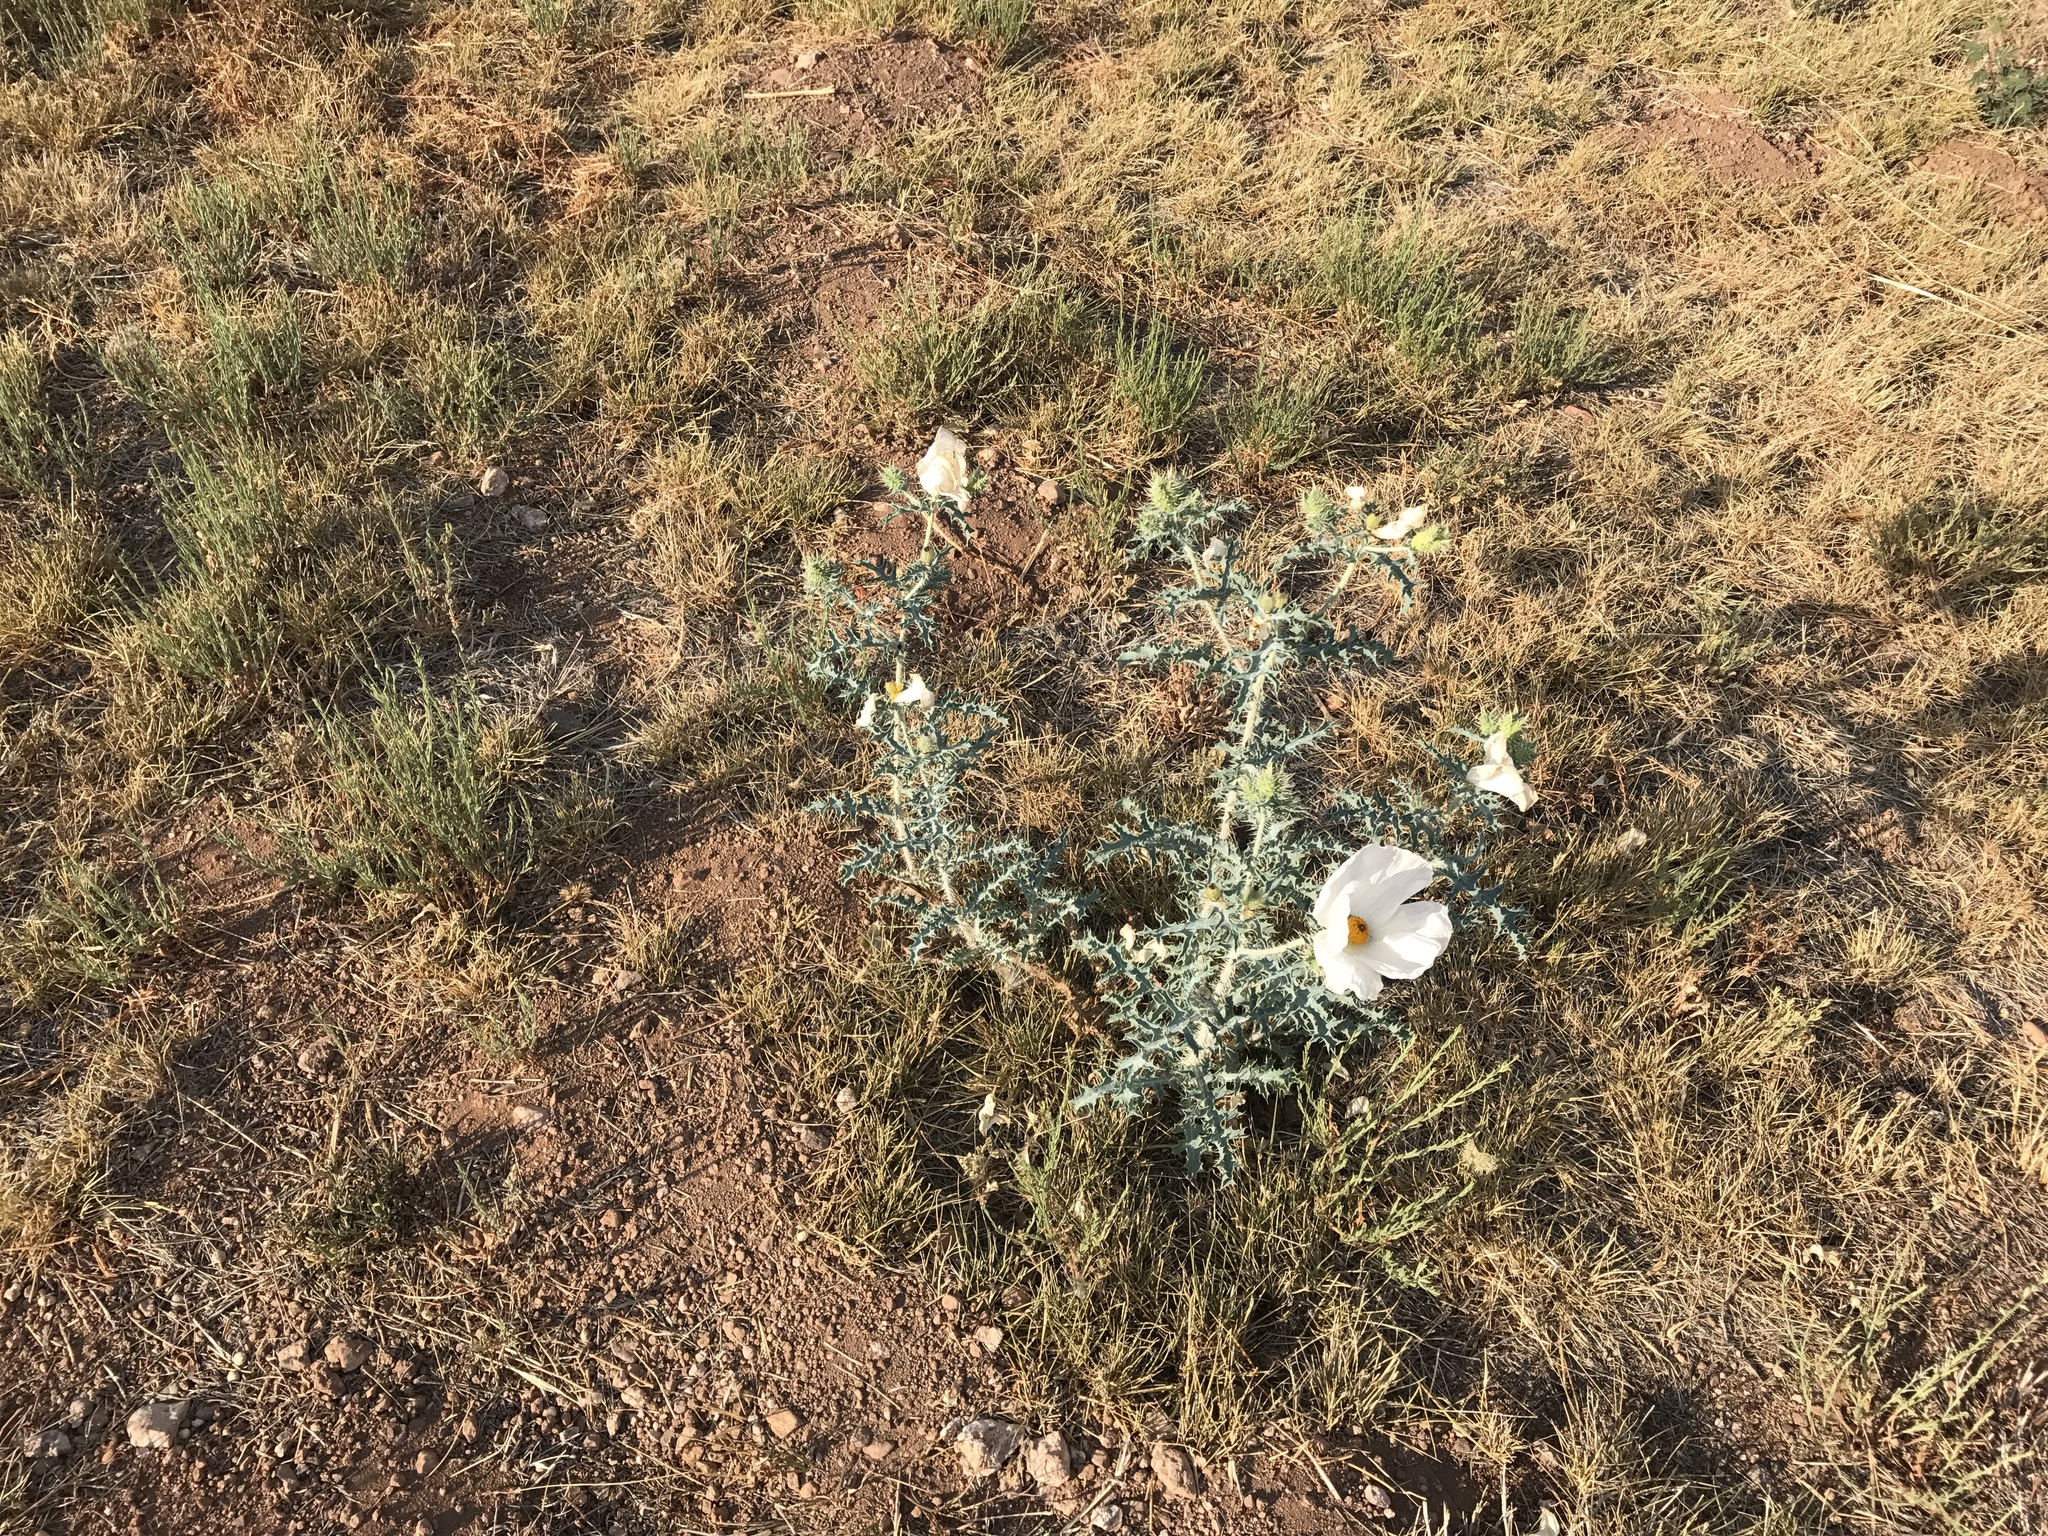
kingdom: Plantae
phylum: Tracheophyta
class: Magnoliopsida
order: Ranunculales
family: Papaveraceae
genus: Argemone
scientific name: Argemone pleiacantha
